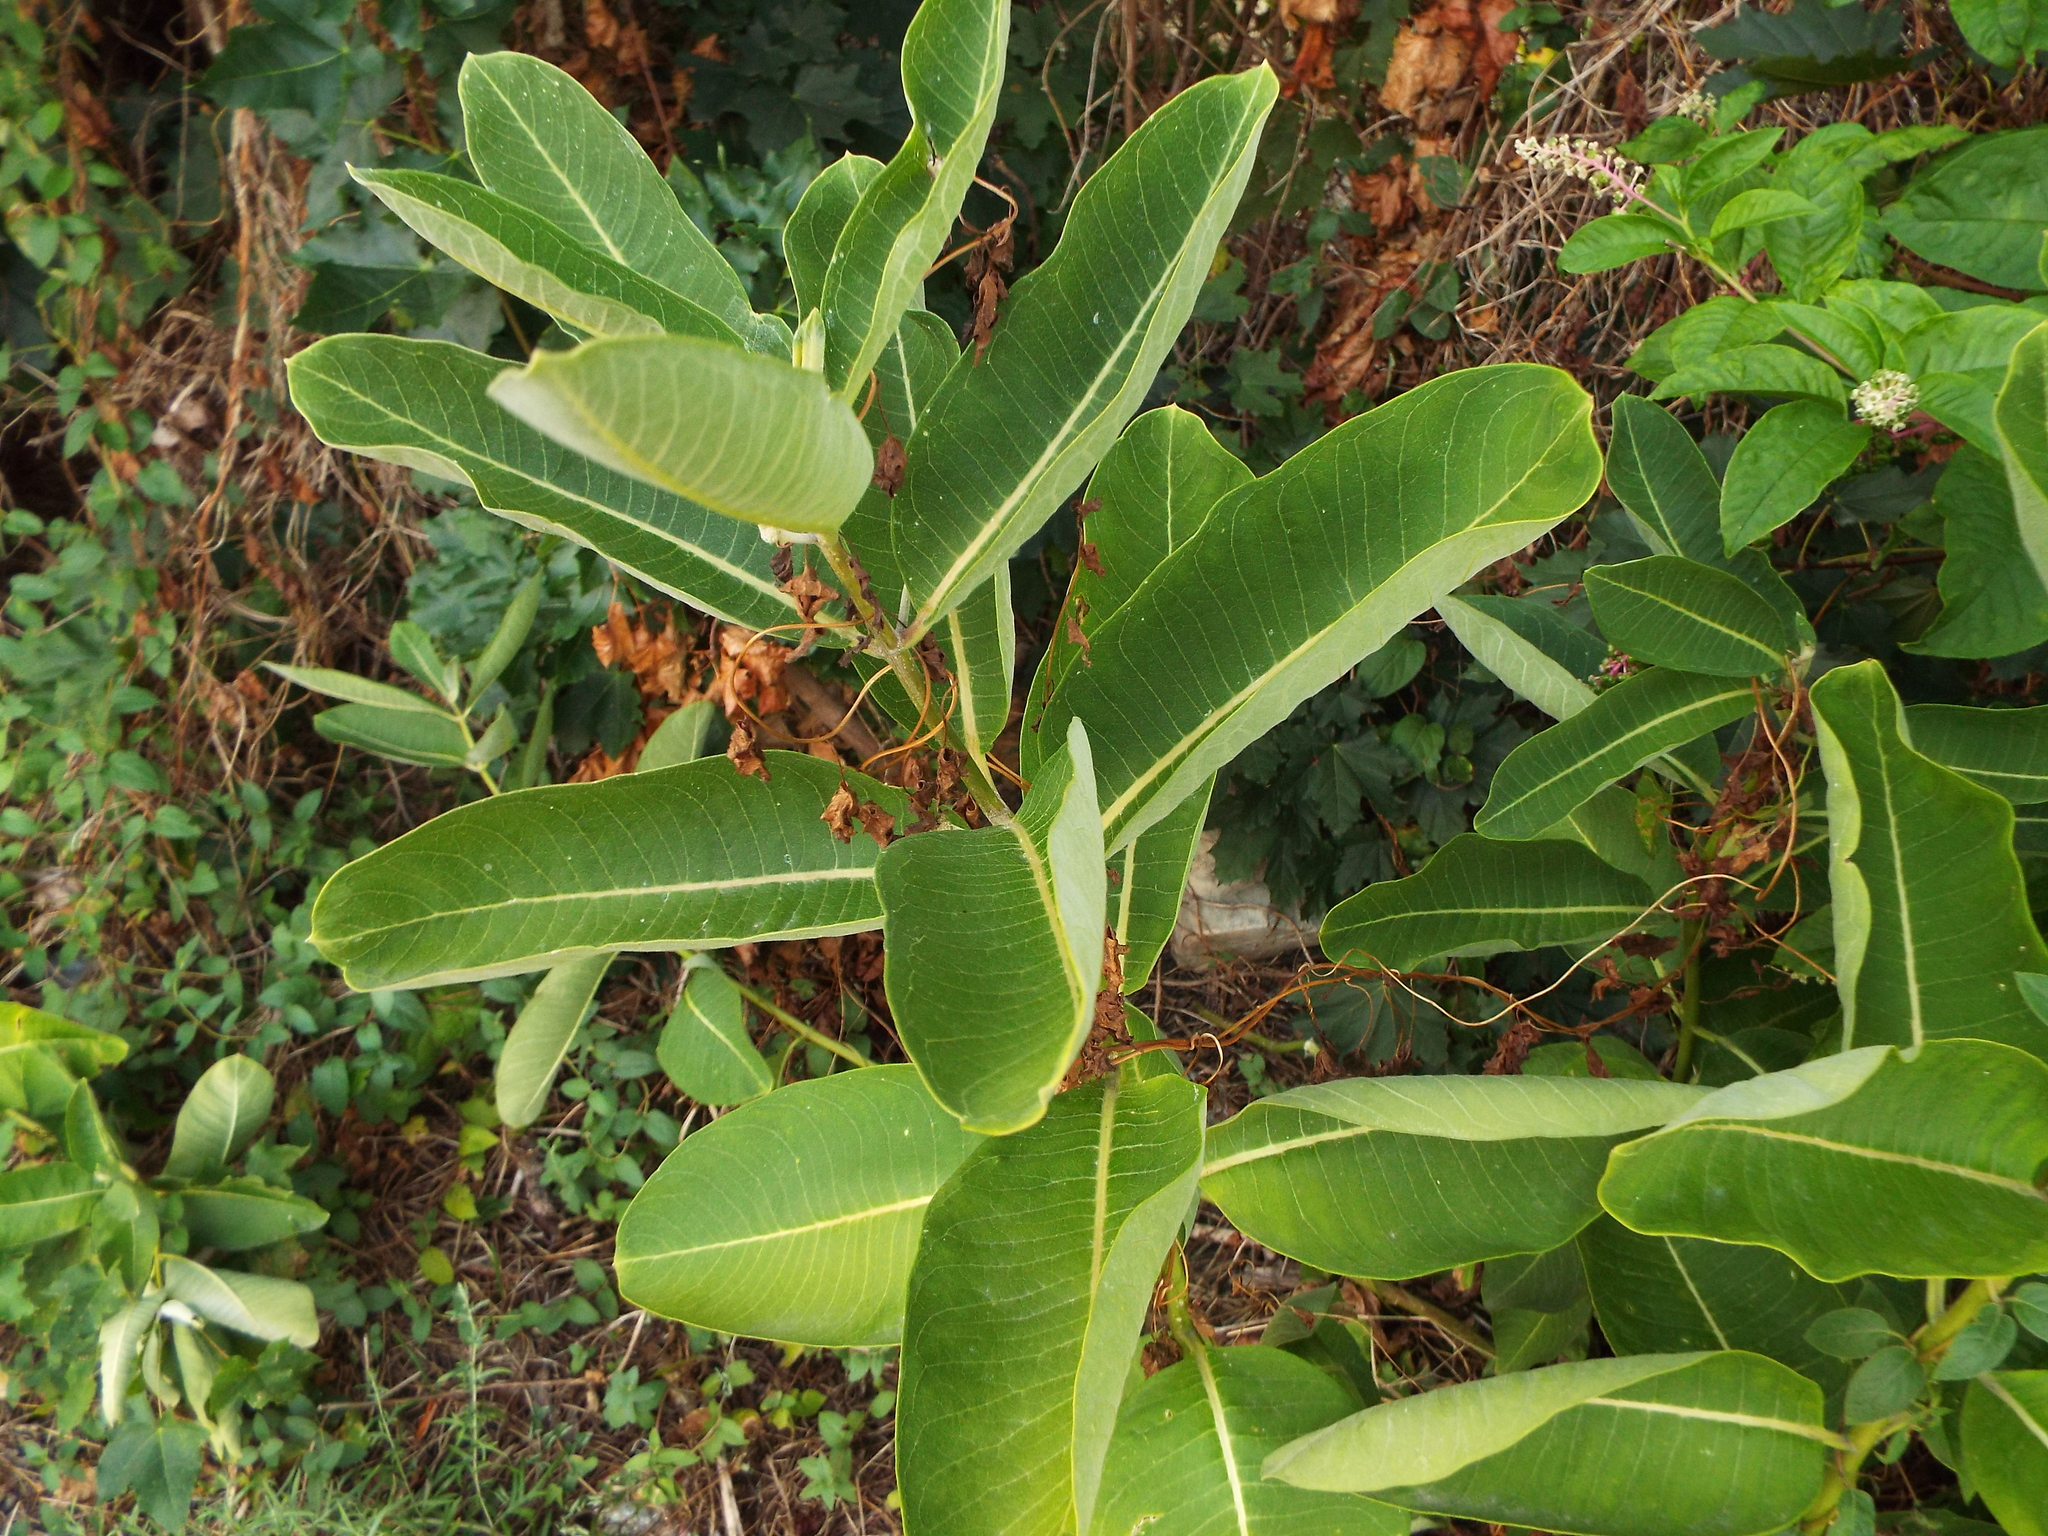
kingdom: Plantae
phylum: Tracheophyta
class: Magnoliopsida
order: Gentianales
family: Apocynaceae
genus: Asclepias
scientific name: Asclepias syriaca
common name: Common milkweed
